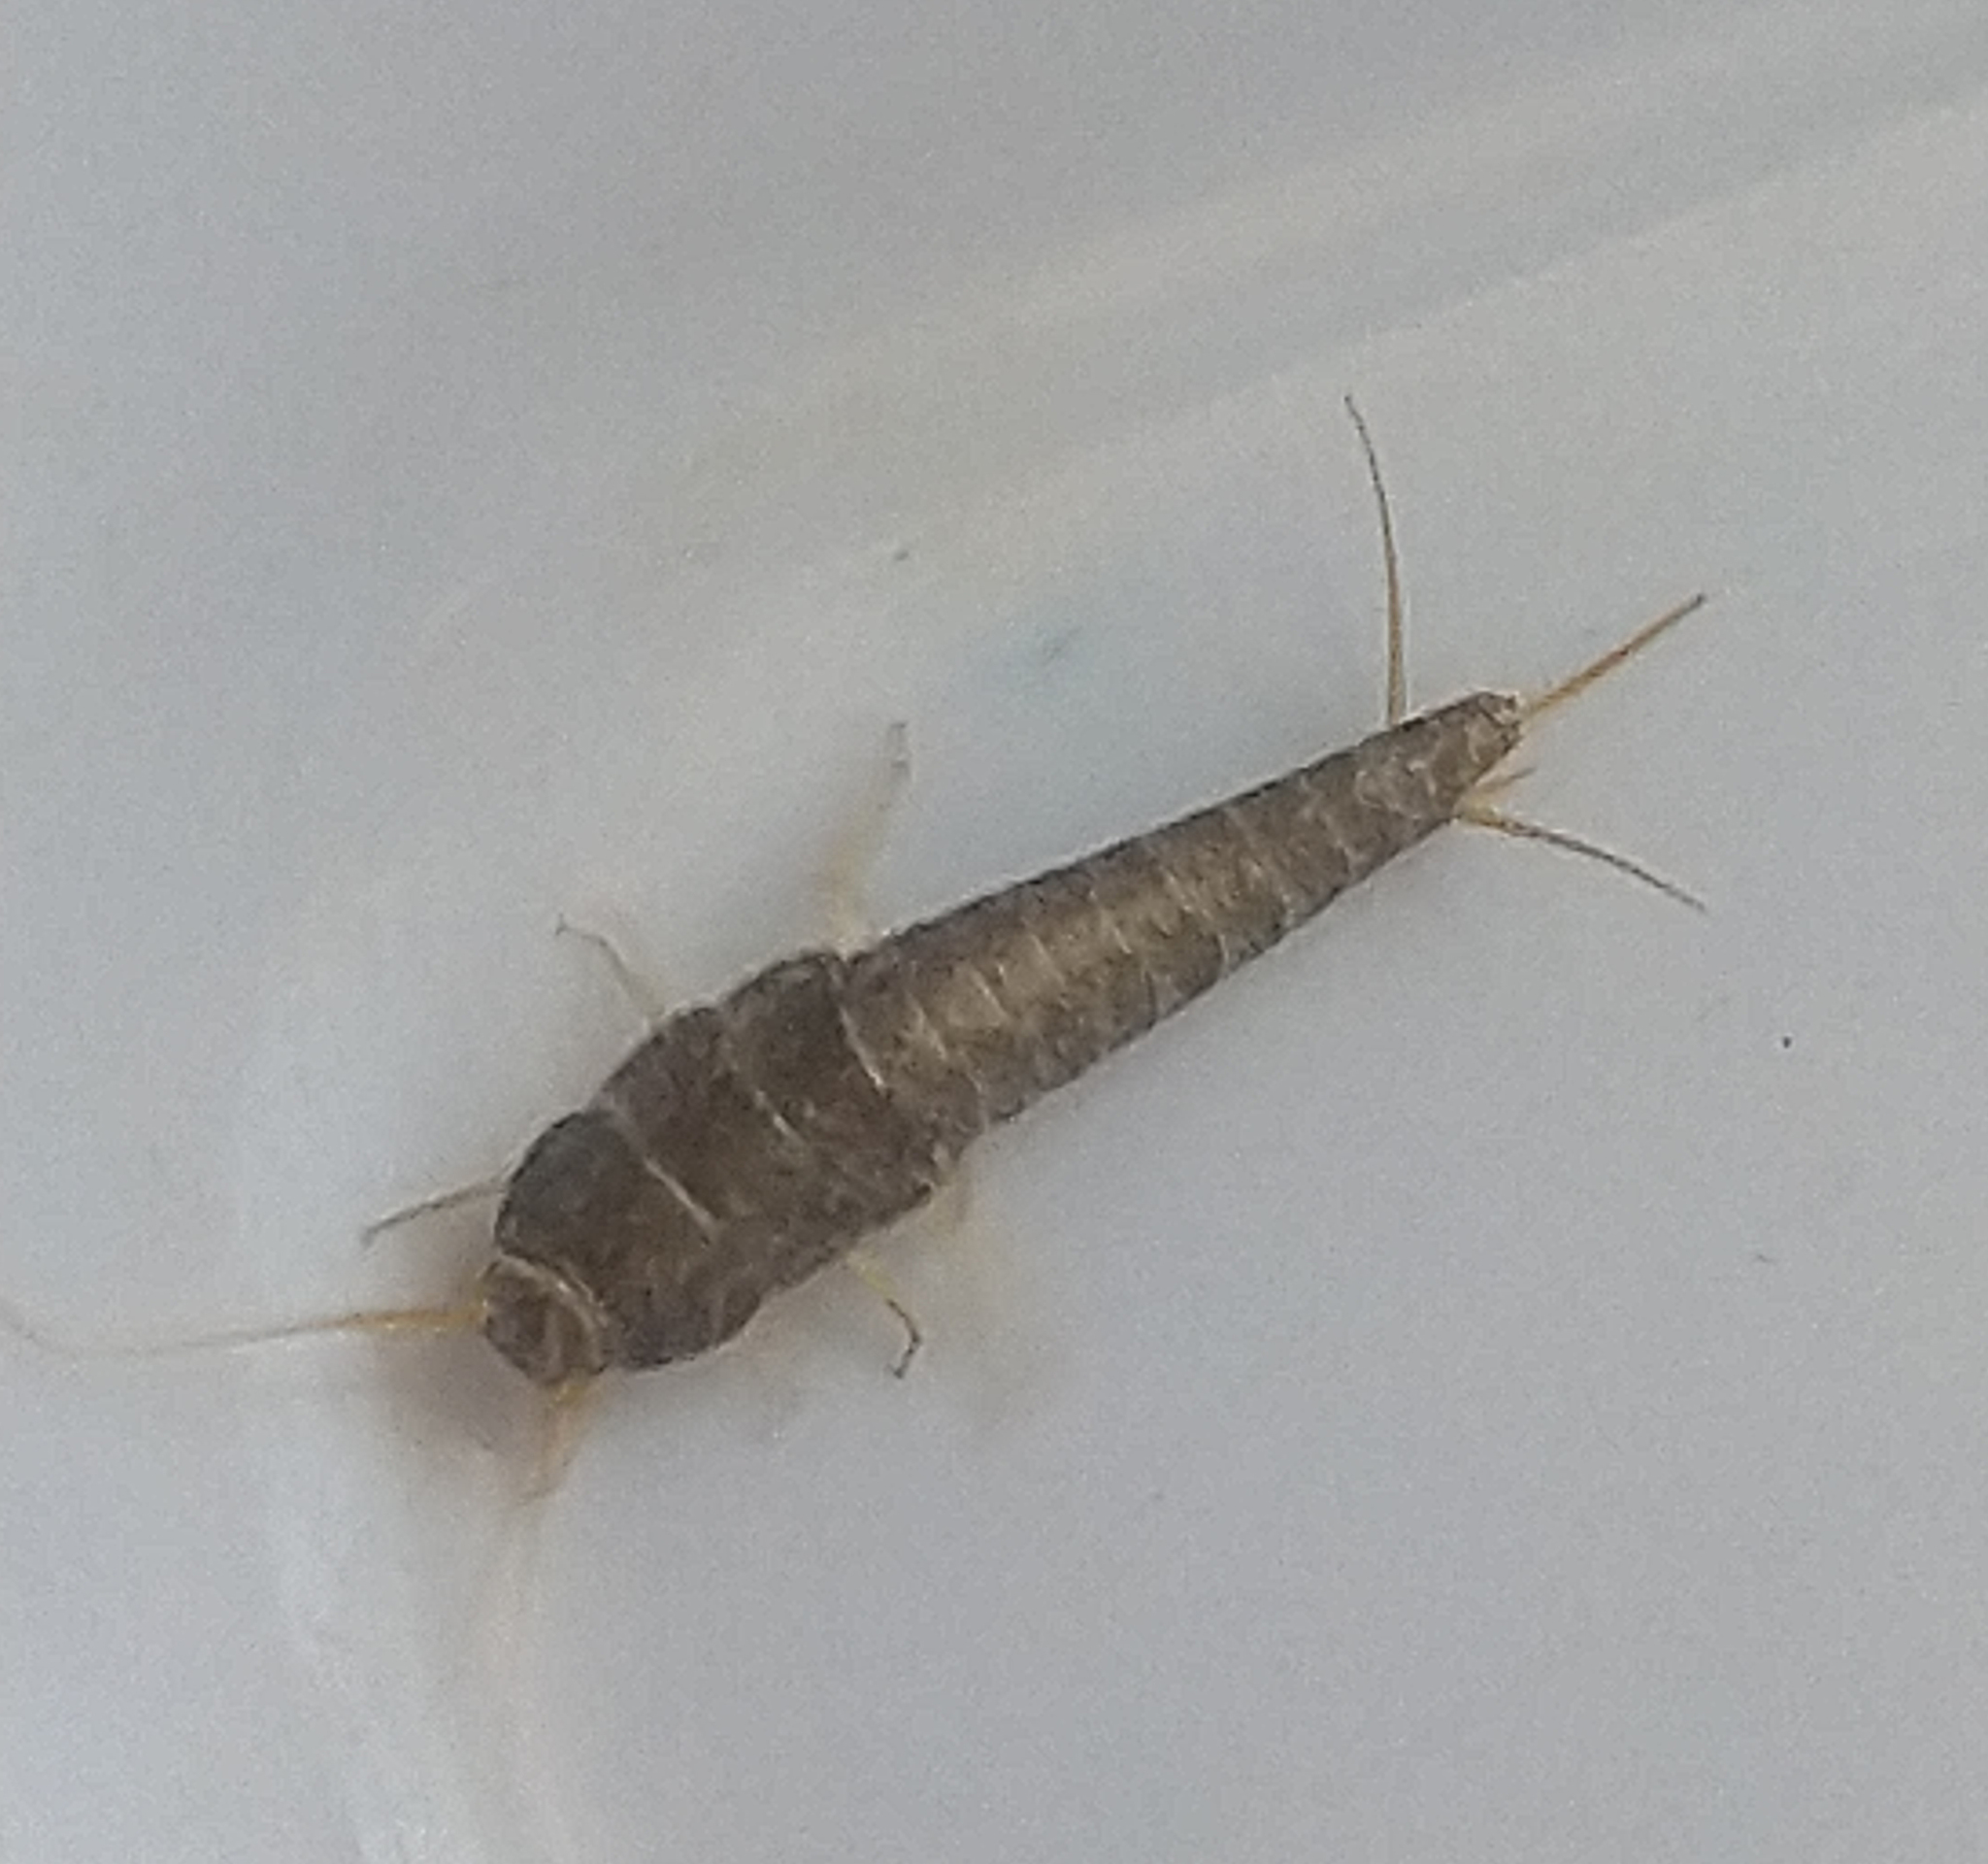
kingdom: Animalia
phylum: Arthropoda
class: Insecta
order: Zygentoma
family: Lepismatidae
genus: Lepisma
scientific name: Lepisma saccharinum
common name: Silverfish
